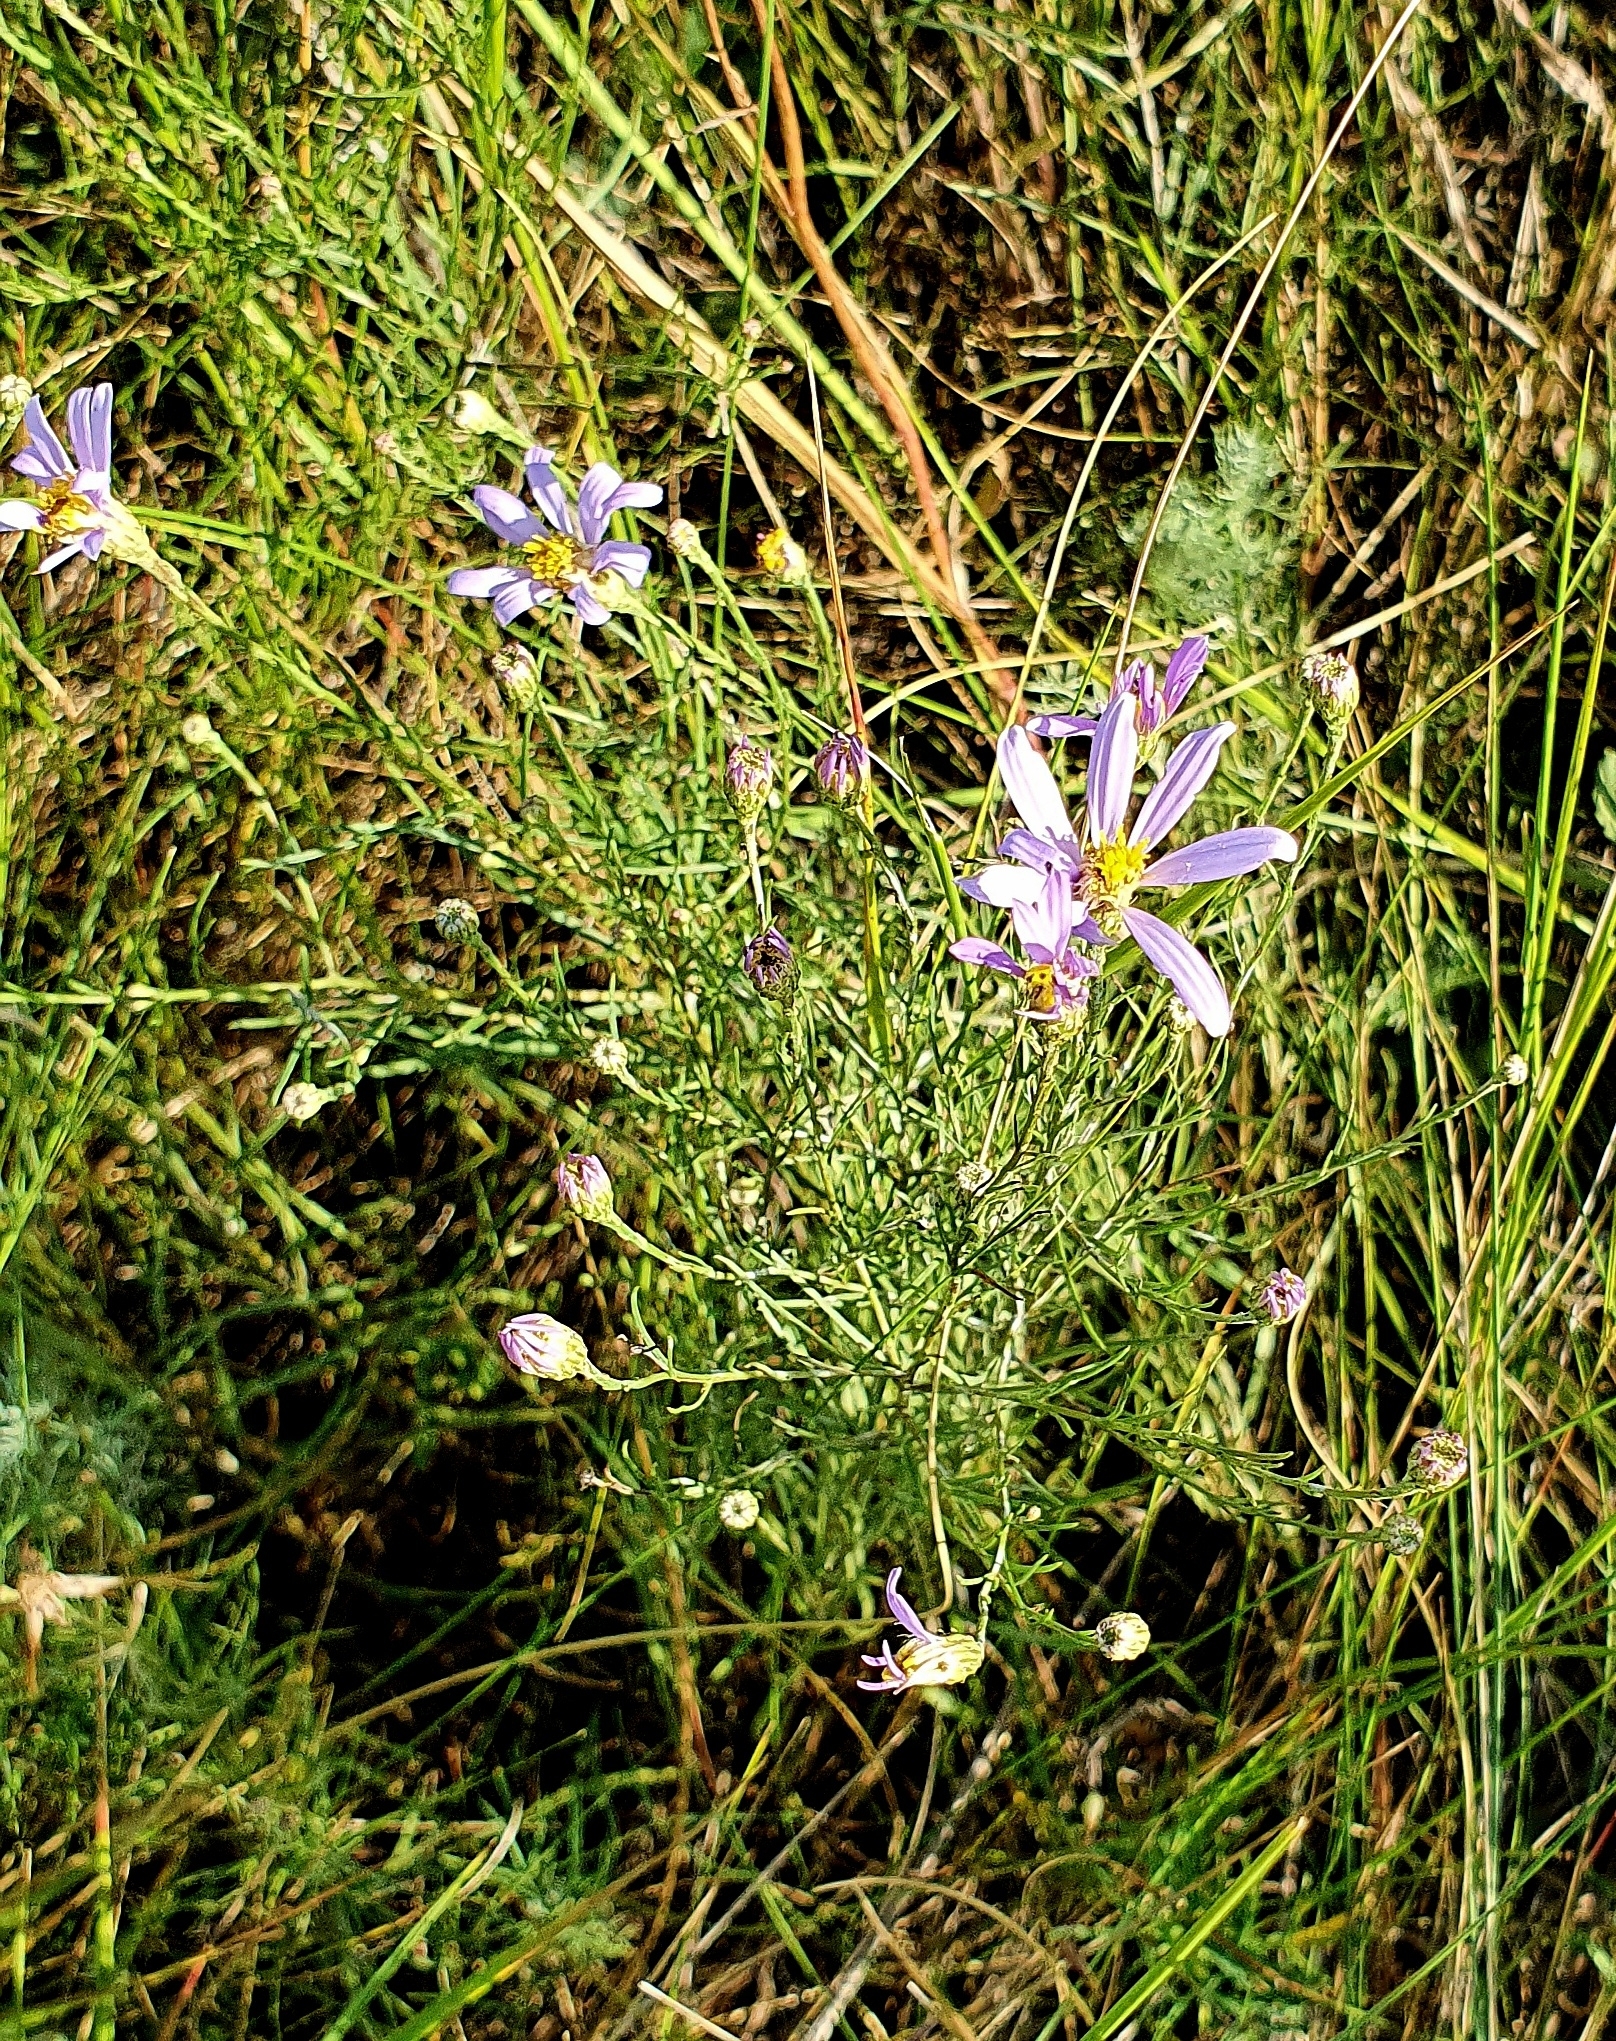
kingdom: Plantae
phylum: Tracheophyta
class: Magnoliopsida
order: Asterales
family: Asteraceae
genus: Galatella
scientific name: Galatella angustissima
